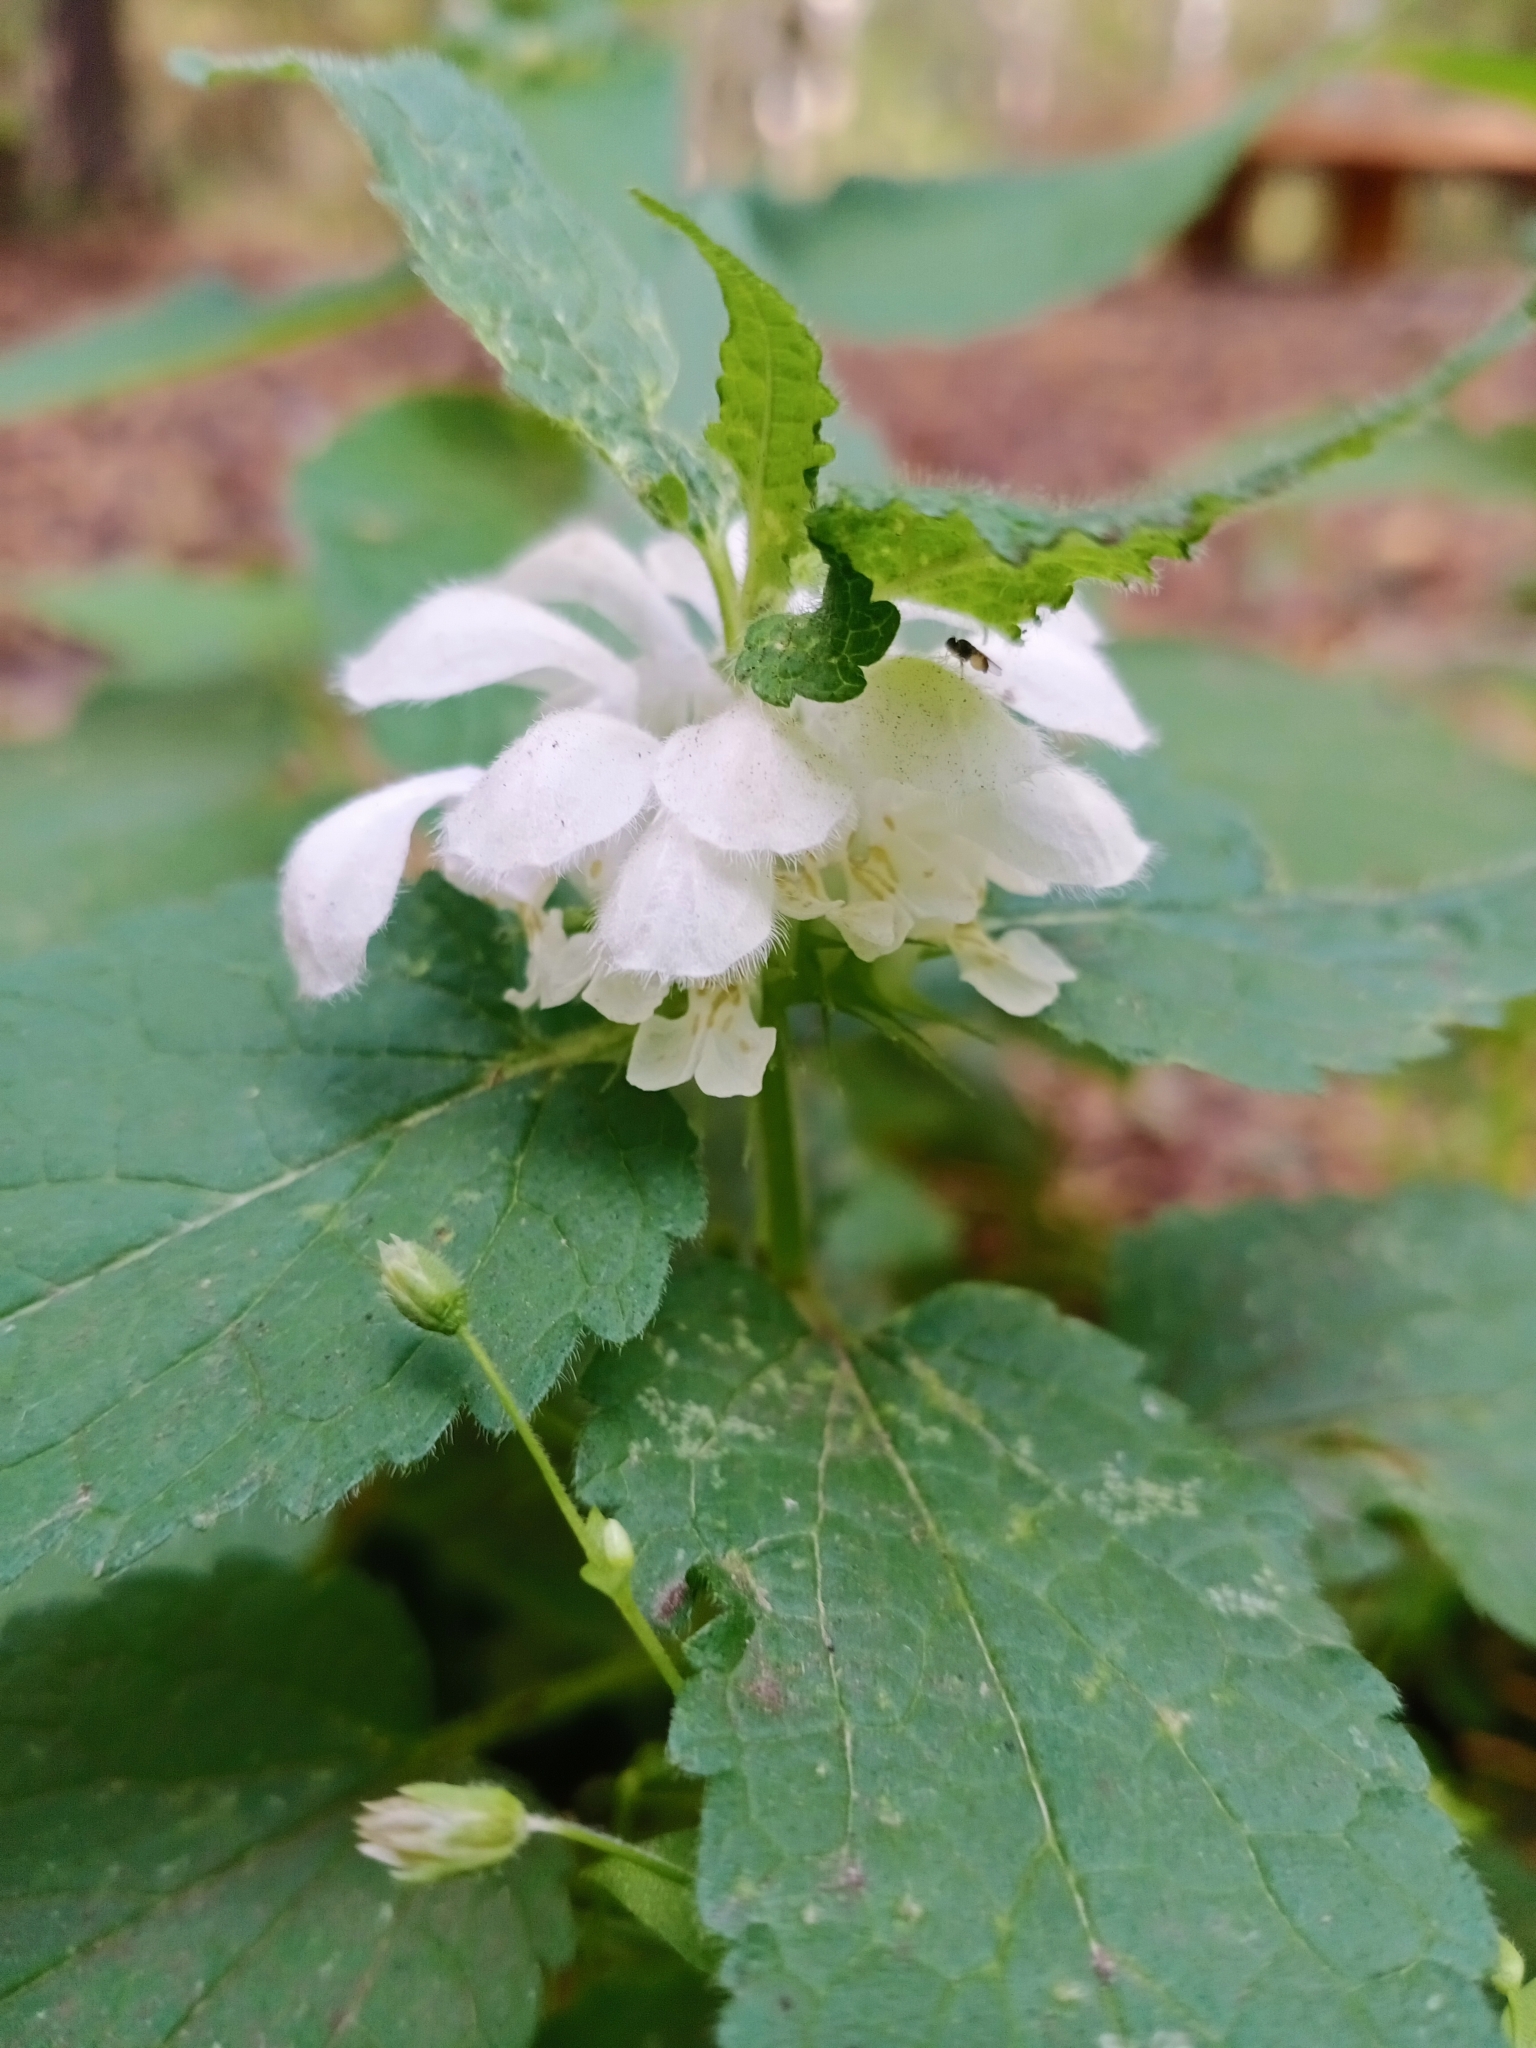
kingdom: Plantae
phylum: Tracheophyta
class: Magnoliopsida
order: Lamiales
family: Lamiaceae
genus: Lamium
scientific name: Lamium album
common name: White dead-nettle
